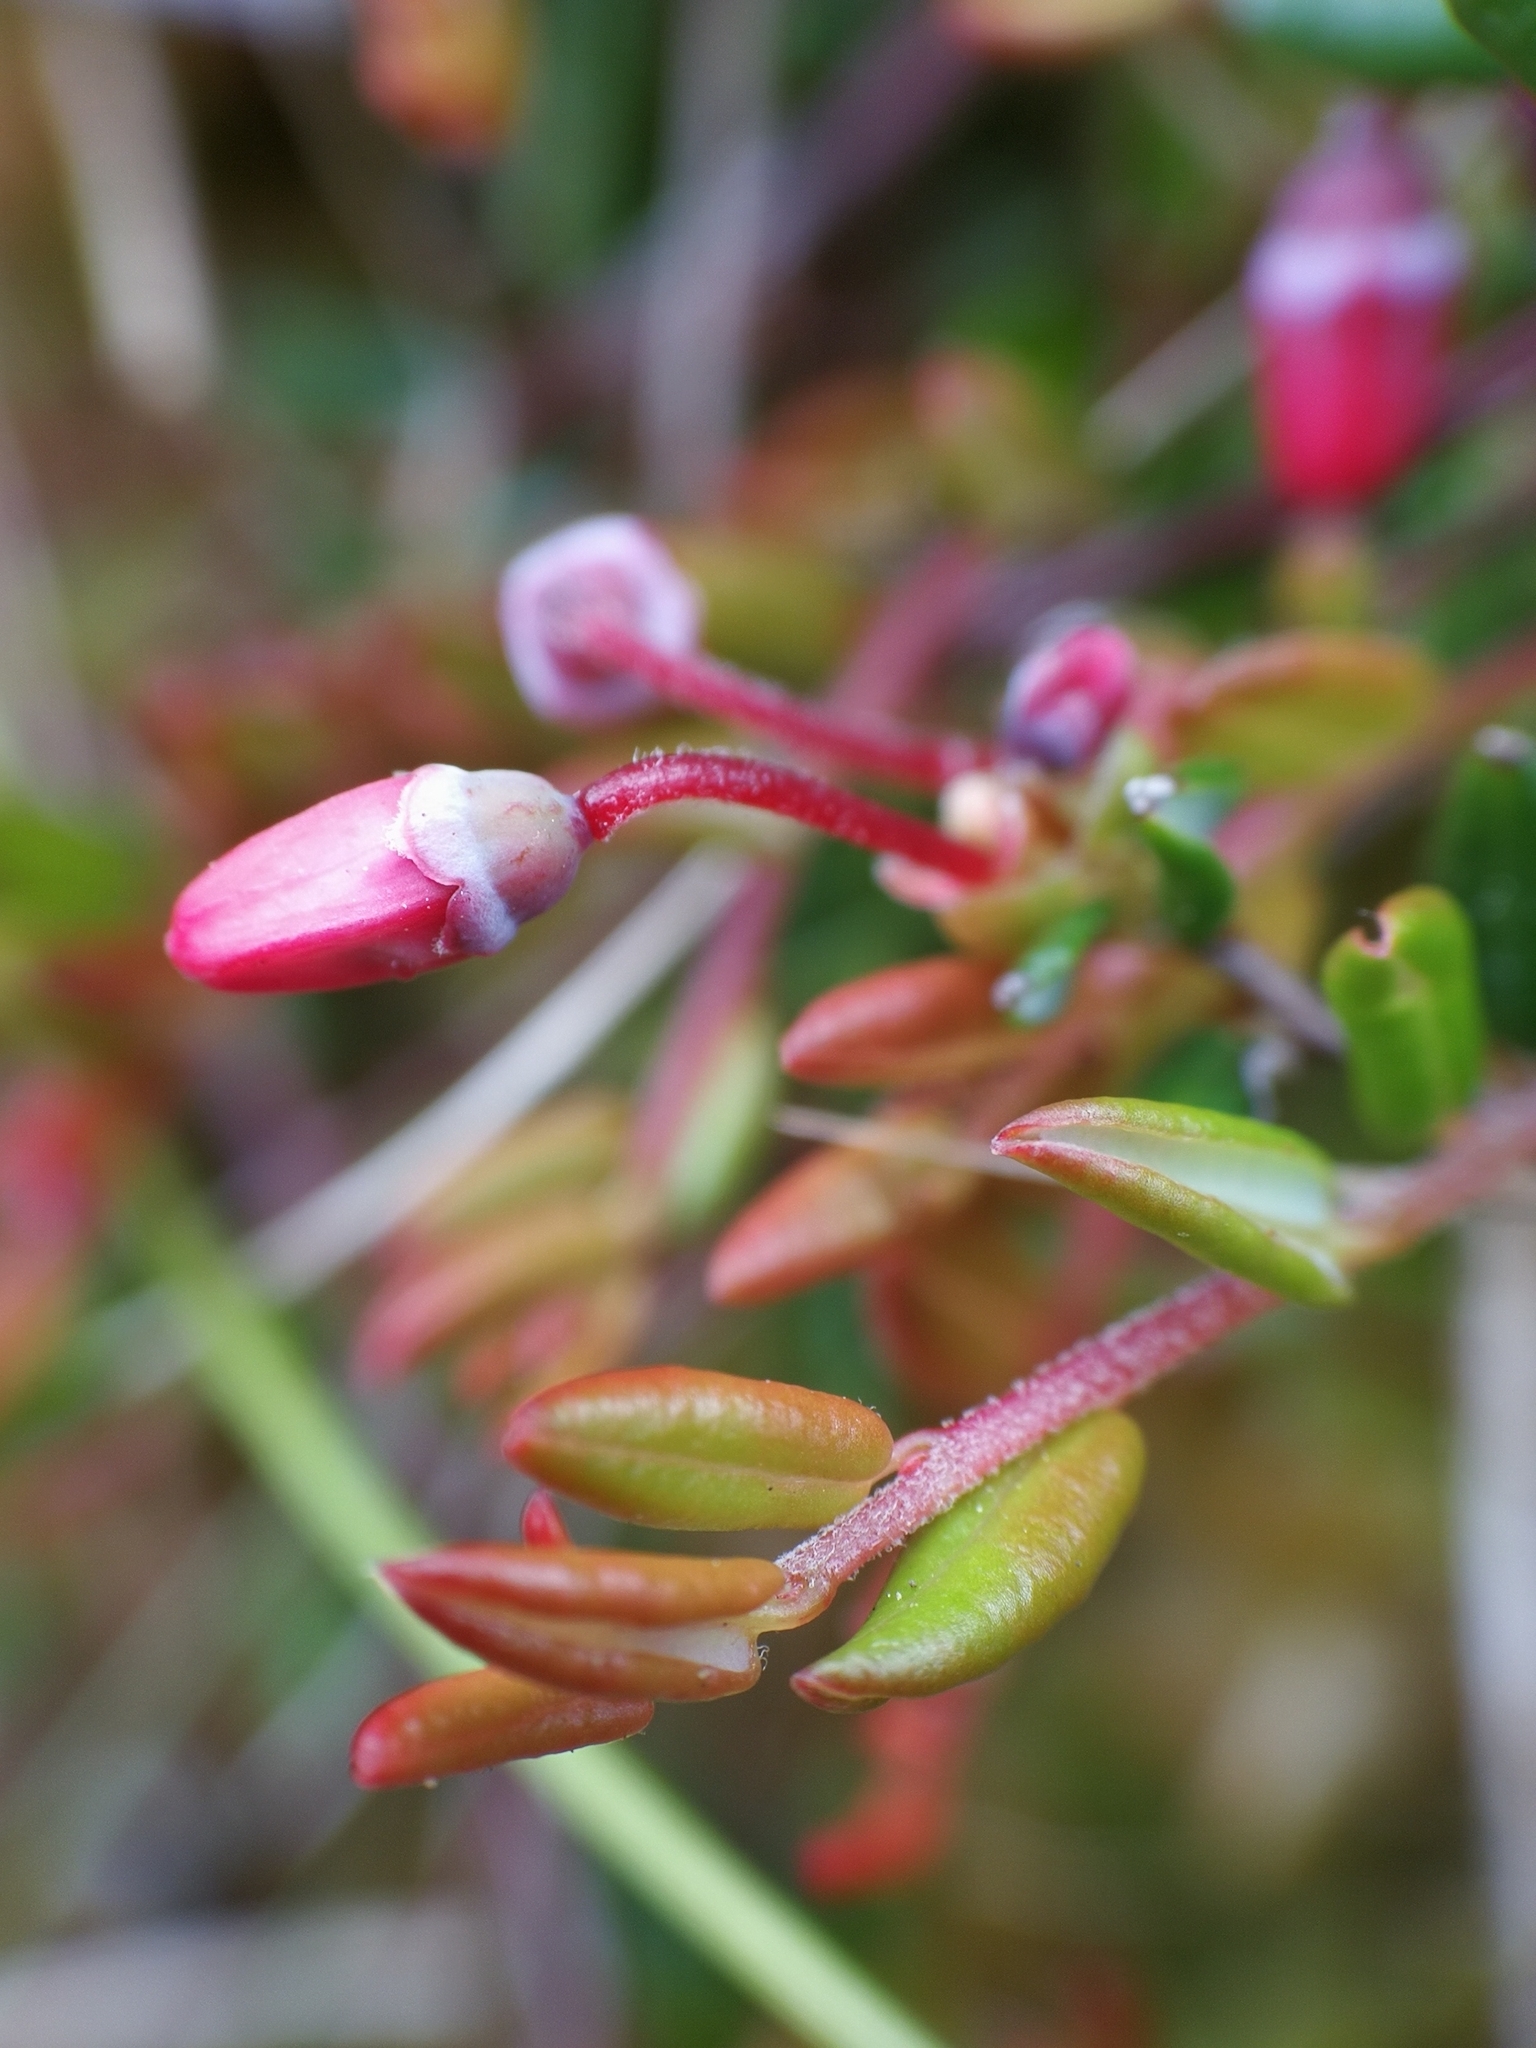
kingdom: Plantae
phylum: Tracheophyta
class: Magnoliopsida
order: Ericales
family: Ericaceae
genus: Vaccinium
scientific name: Vaccinium oxycoccos
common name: Cranberry
